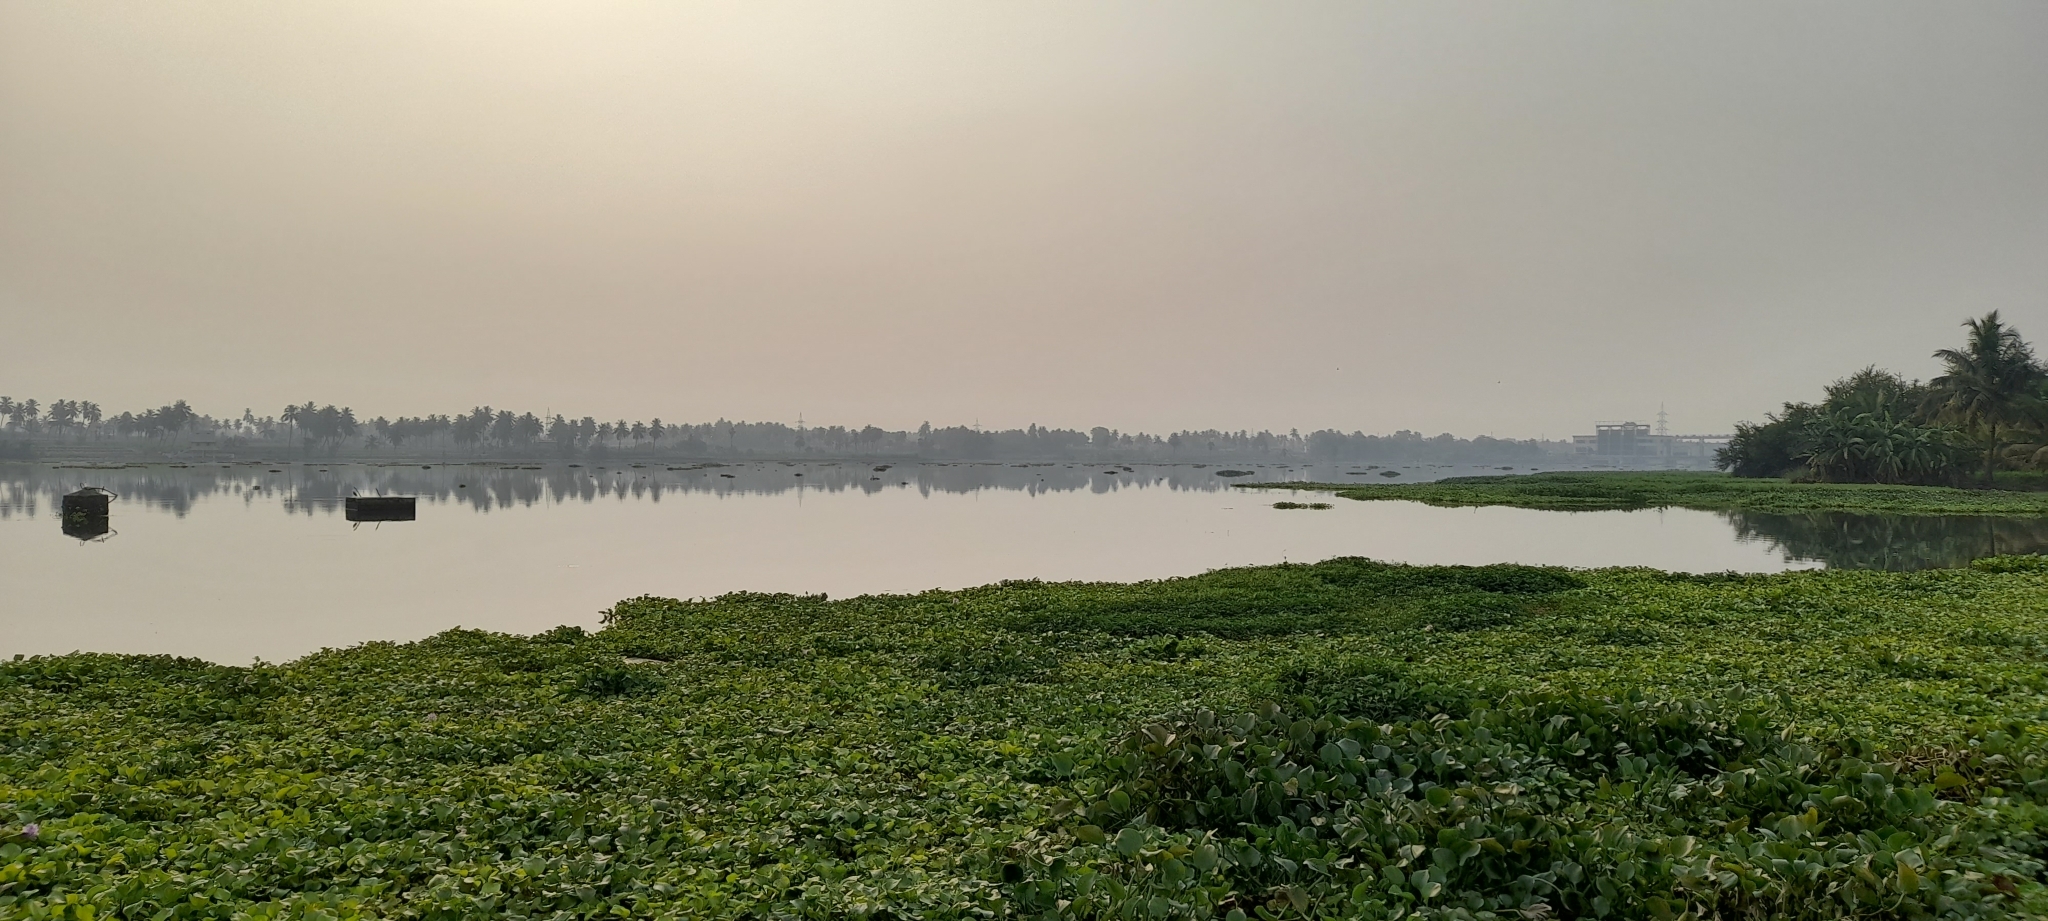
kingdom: Plantae
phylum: Tracheophyta
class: Liliopsida
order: Commelinales
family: Pontederiaceae
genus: Pontederia
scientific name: Pontederia crassipes
